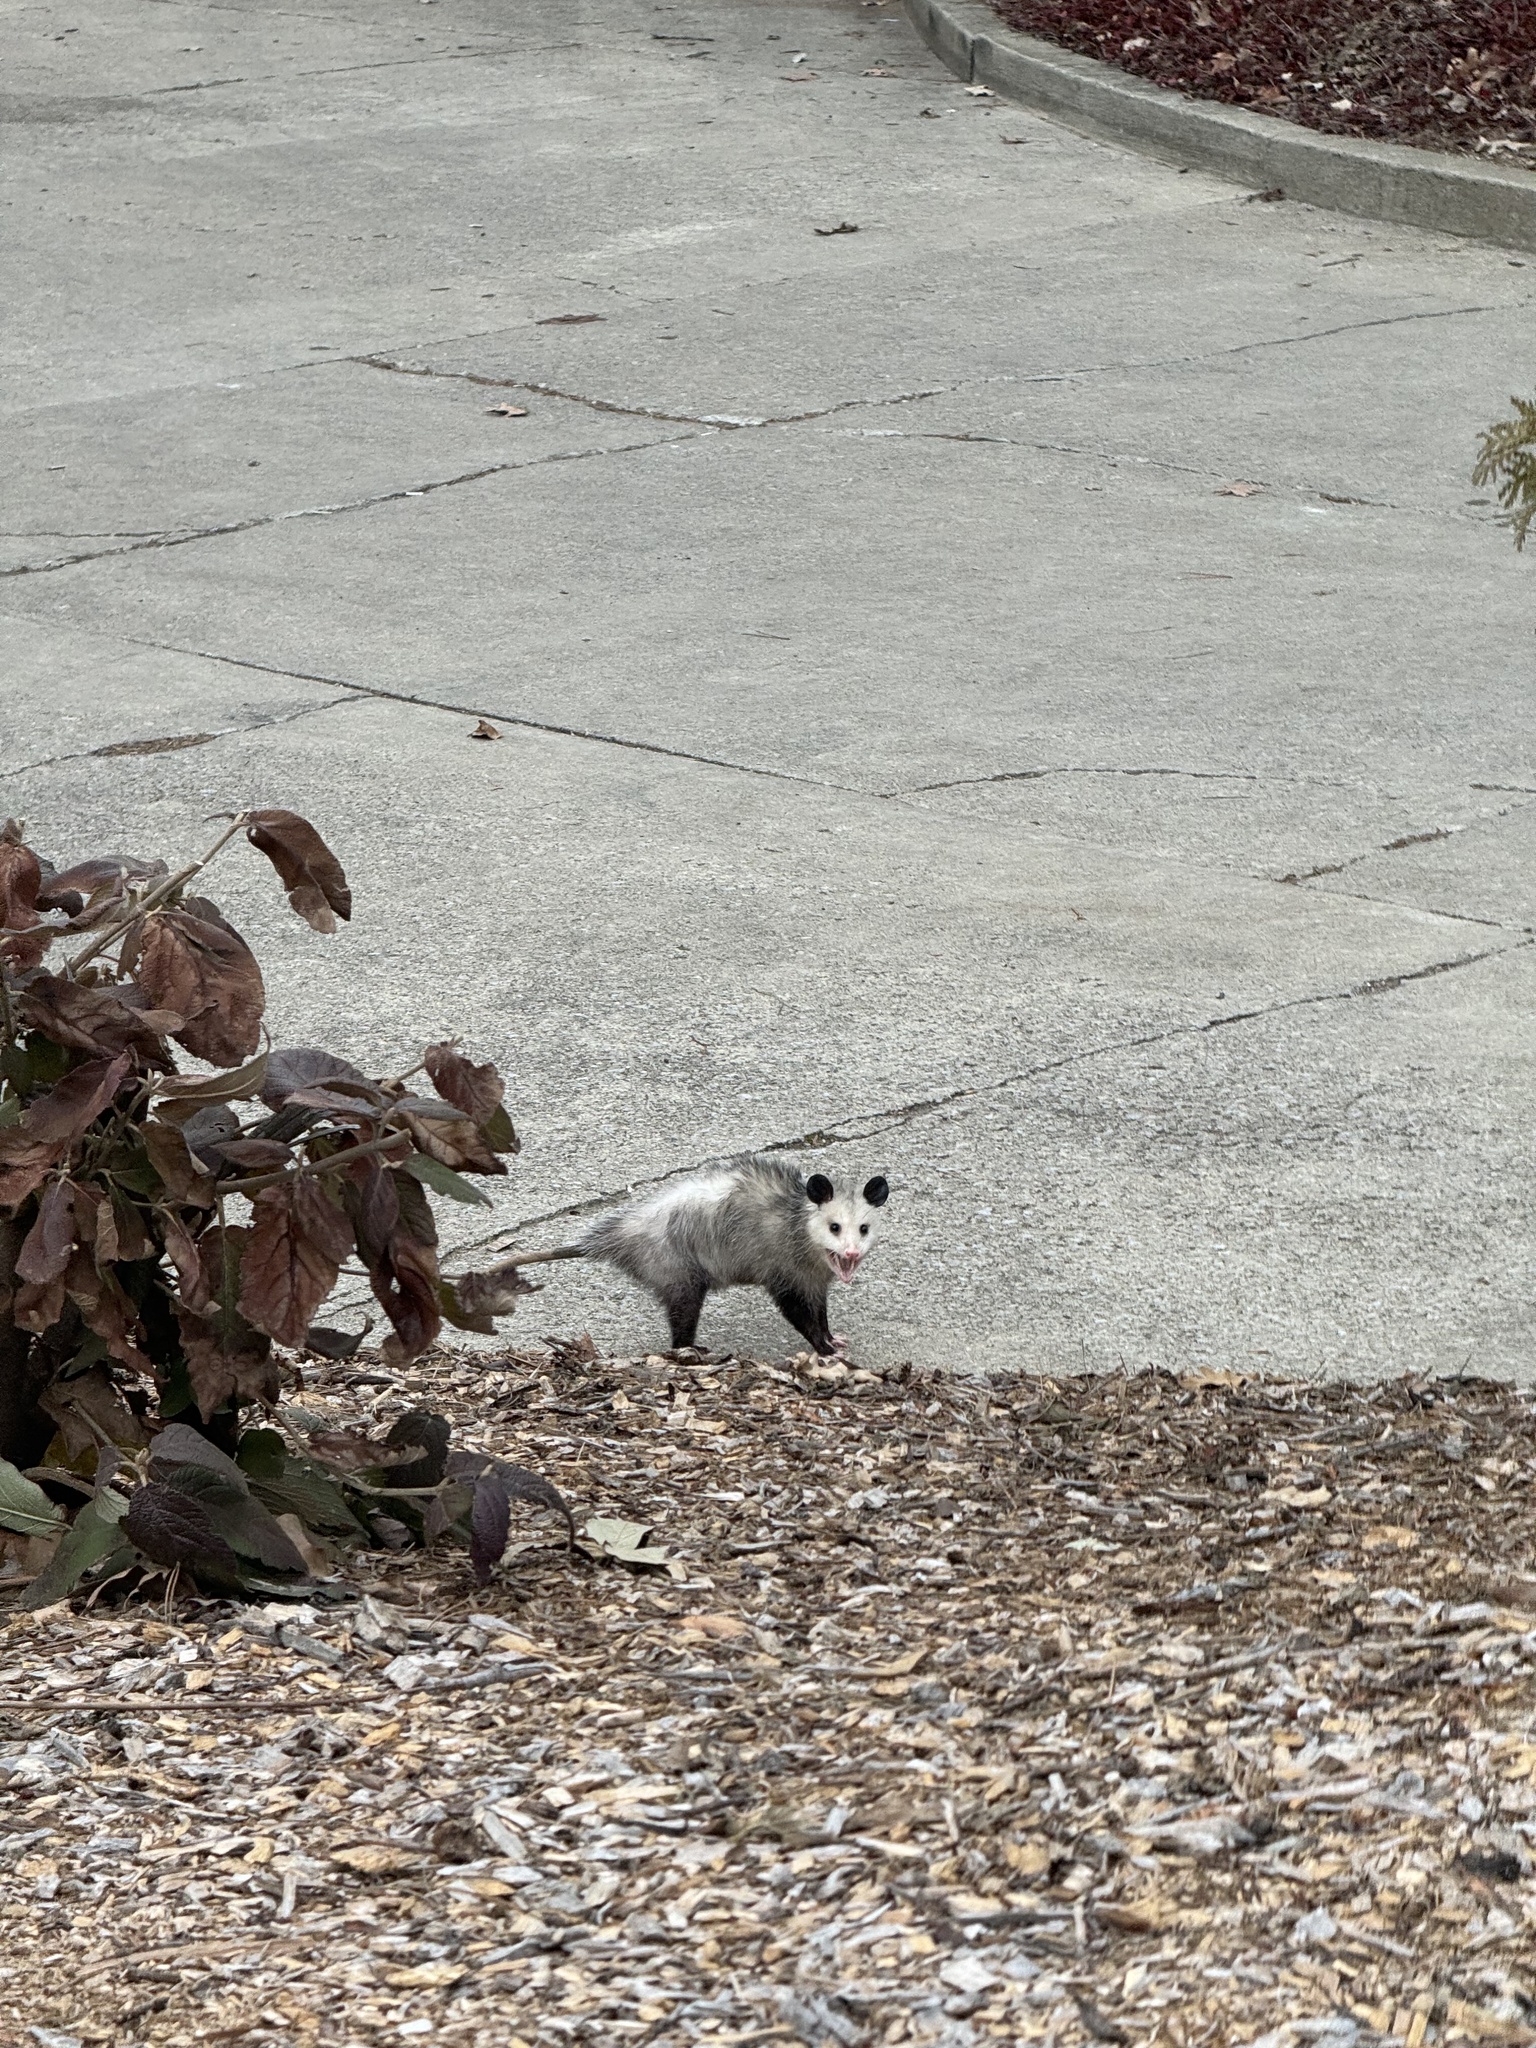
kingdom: Animalia
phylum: Chordata
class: Mammalia
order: Didelphimorphia
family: Didelphidae
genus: Didelphis
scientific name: Didelphis virginiana
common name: Virginia opossum
